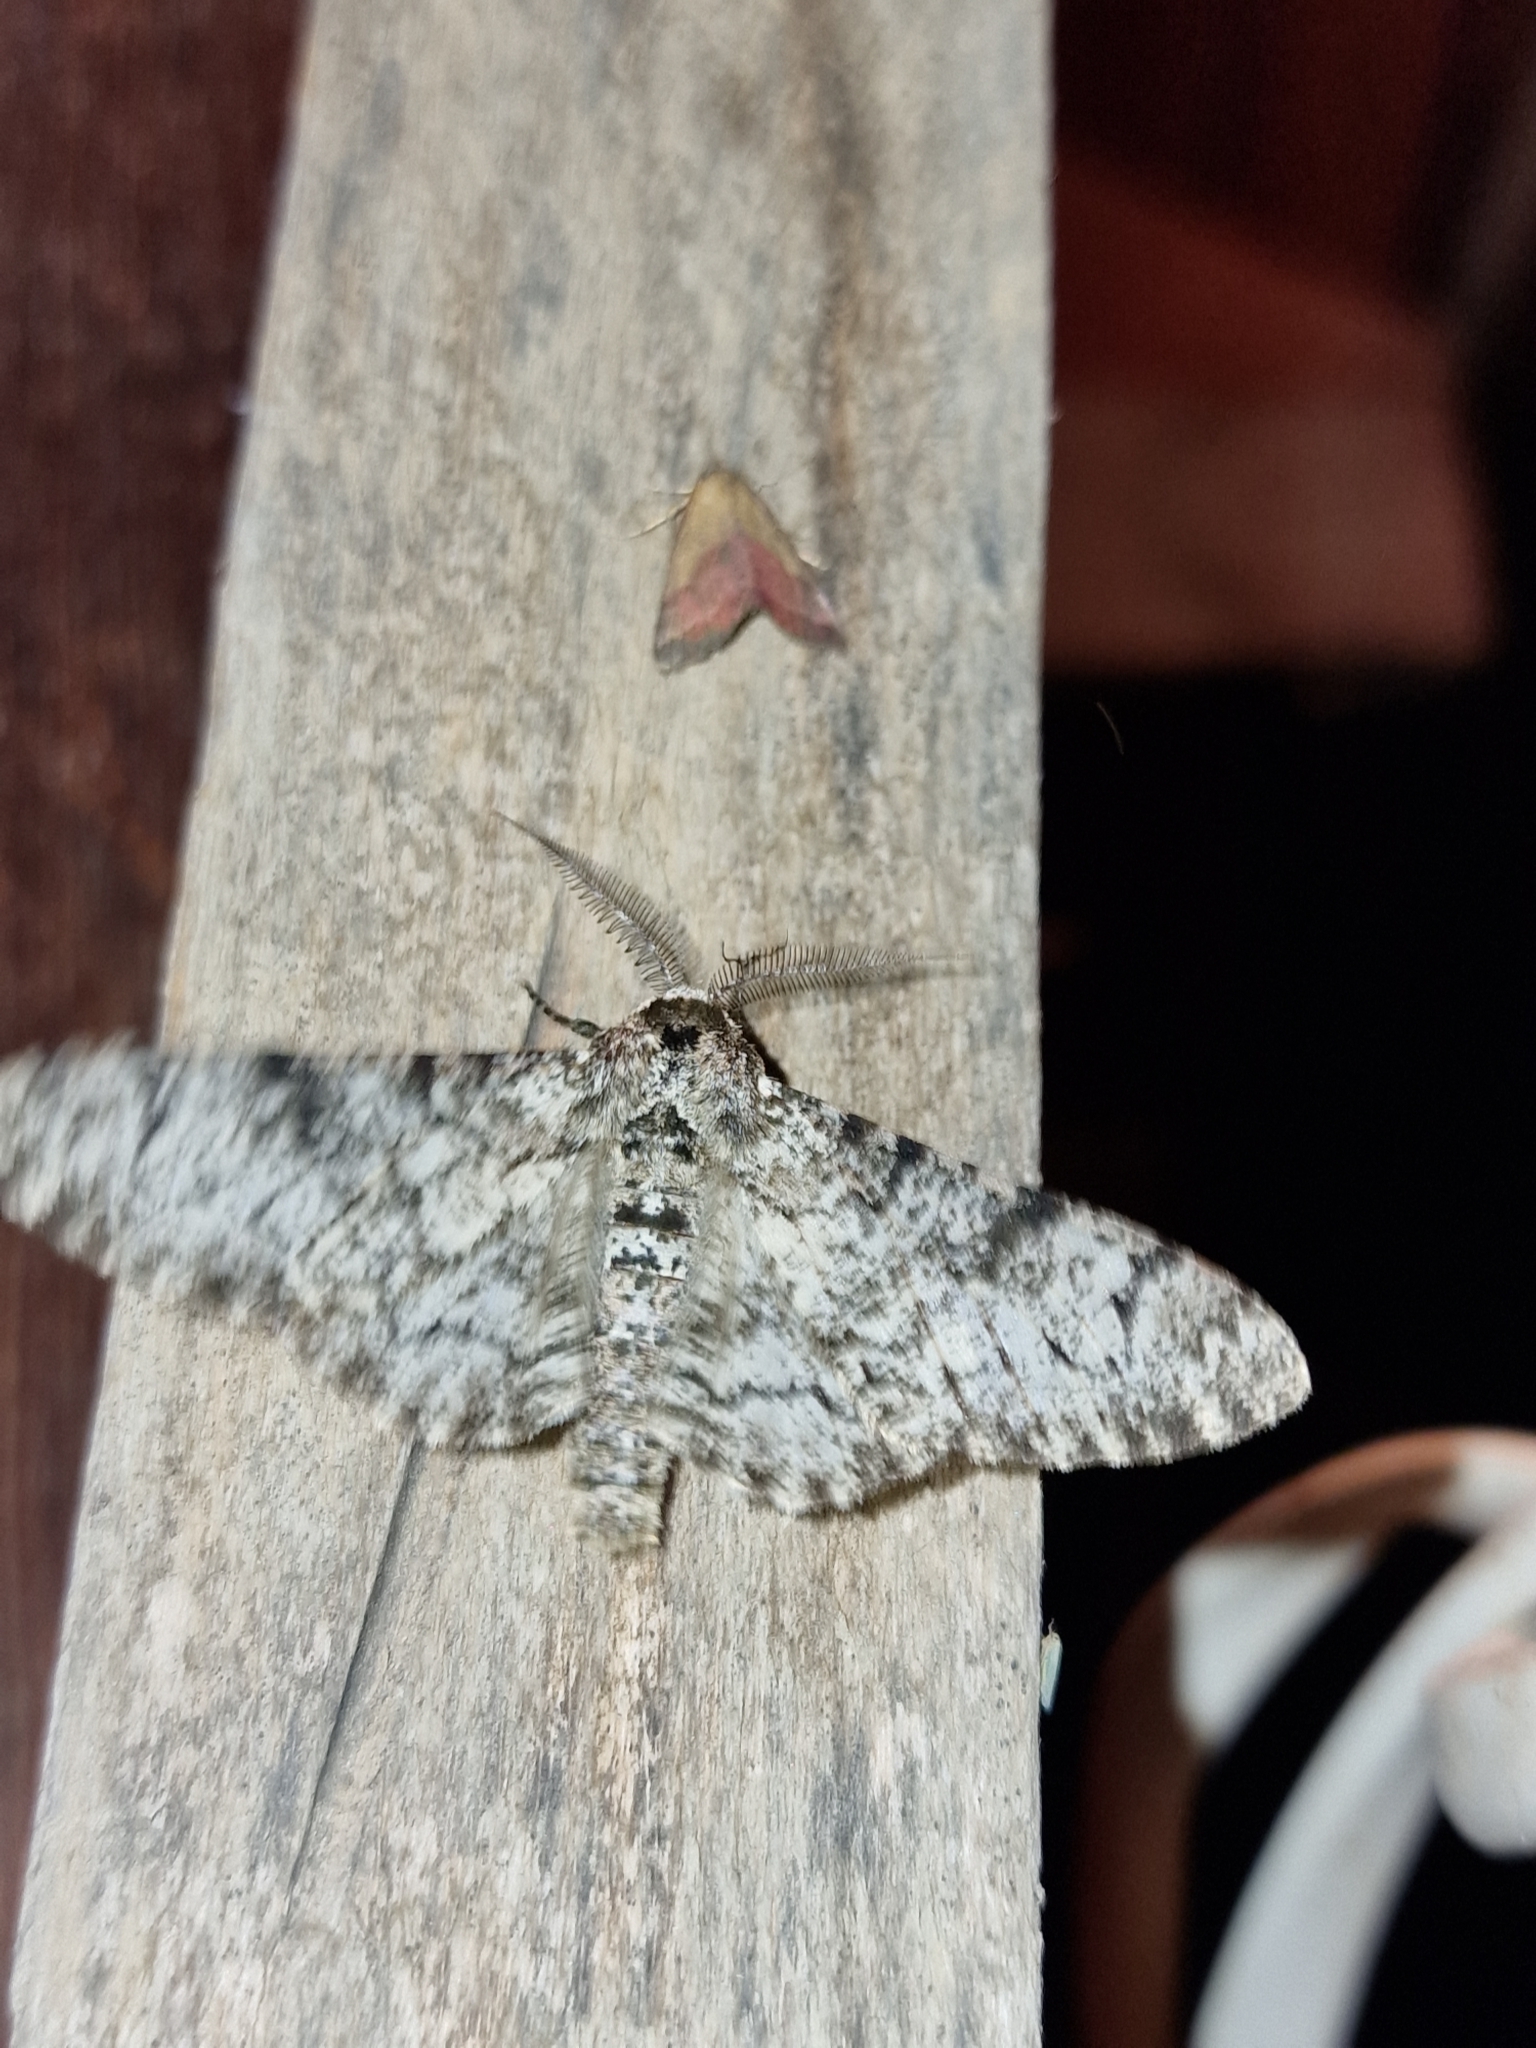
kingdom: Animalia
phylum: Arthropoda
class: Insecta
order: Lepidoptera
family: Geometridae
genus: Biston
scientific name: Biston betularia
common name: Peppered moth
